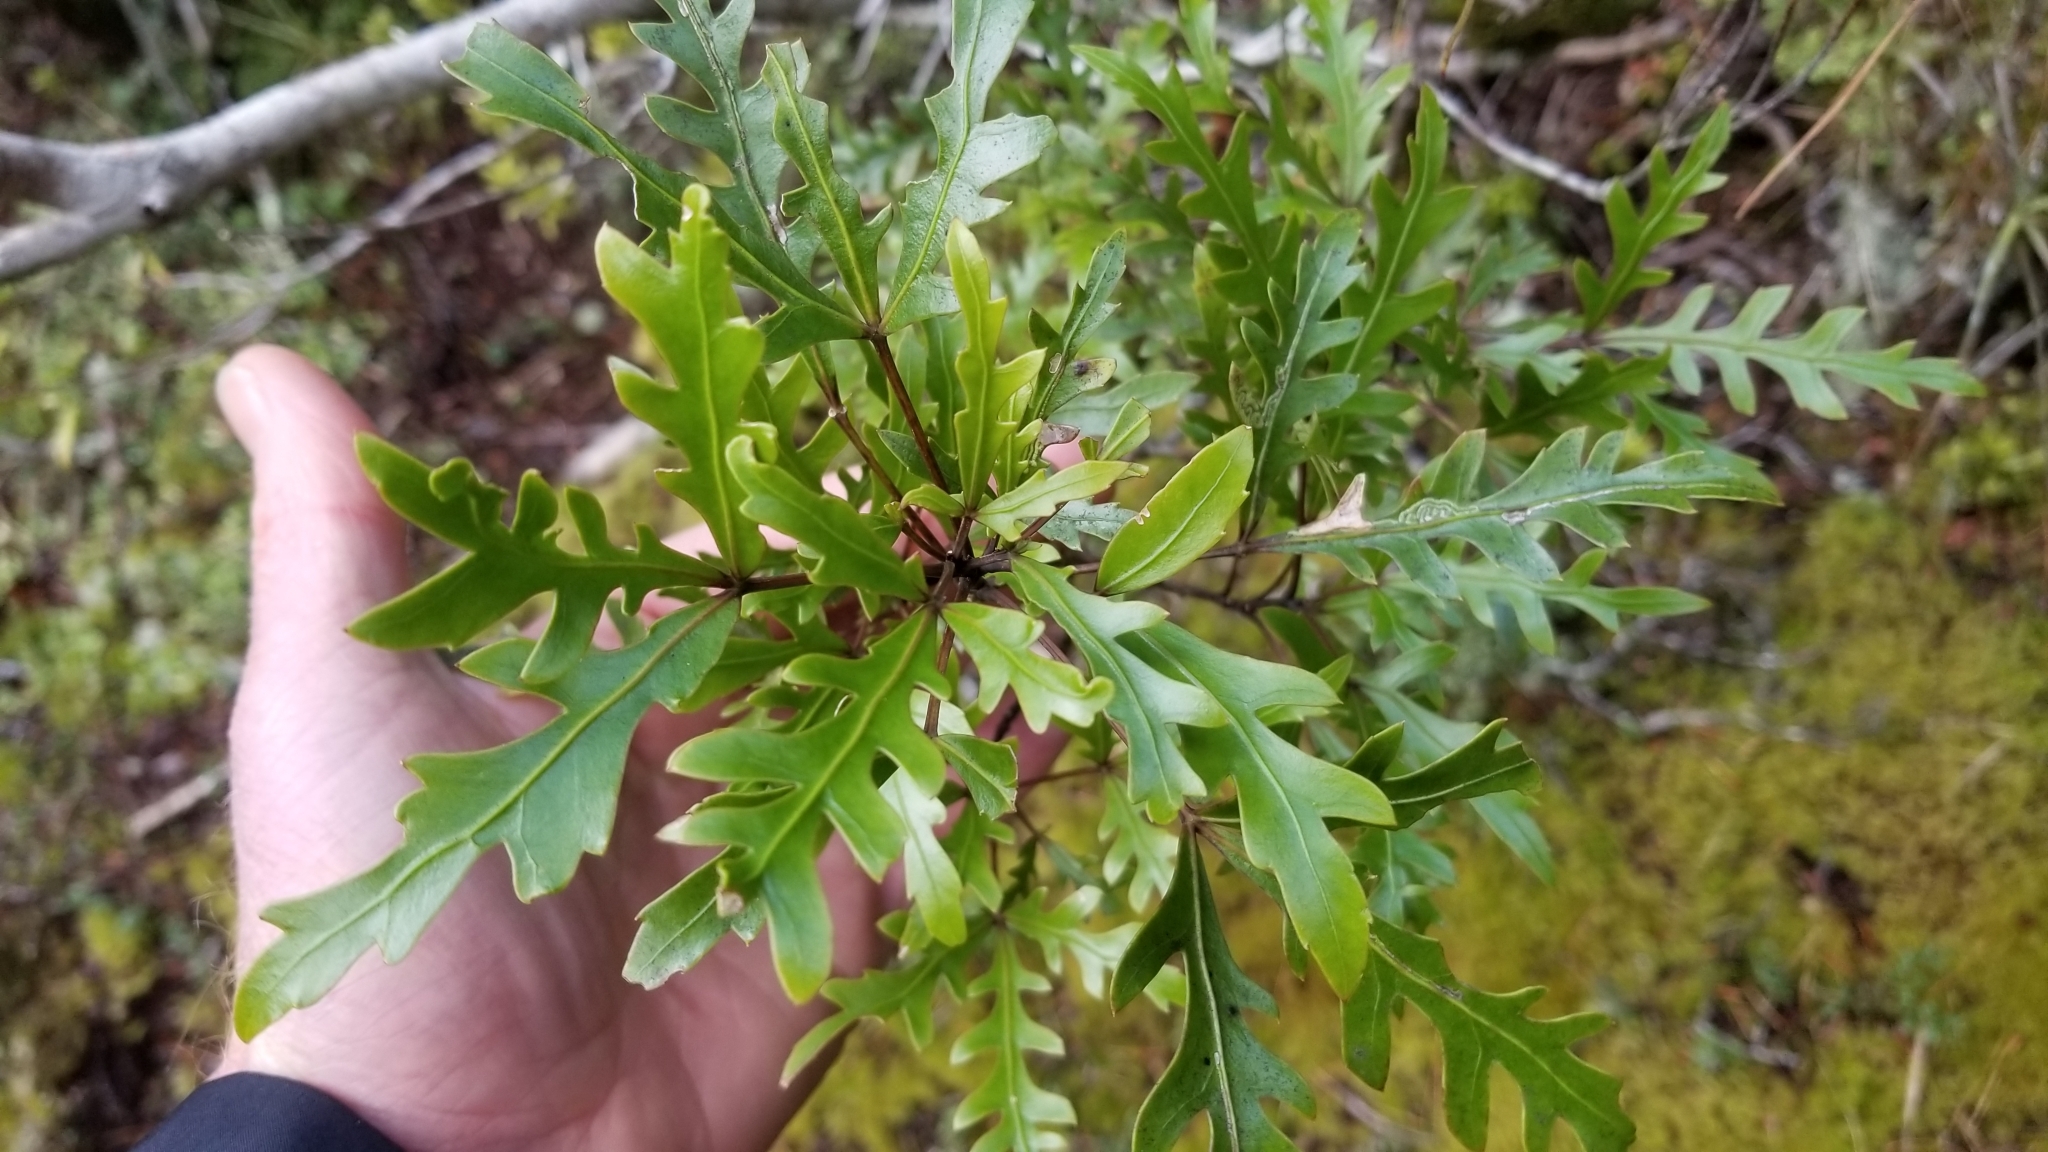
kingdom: Plantae
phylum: Tracheophyta
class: Magnoliopsida
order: Apiales
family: Araliaceae
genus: Raukaua
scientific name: Raukaua simplex
